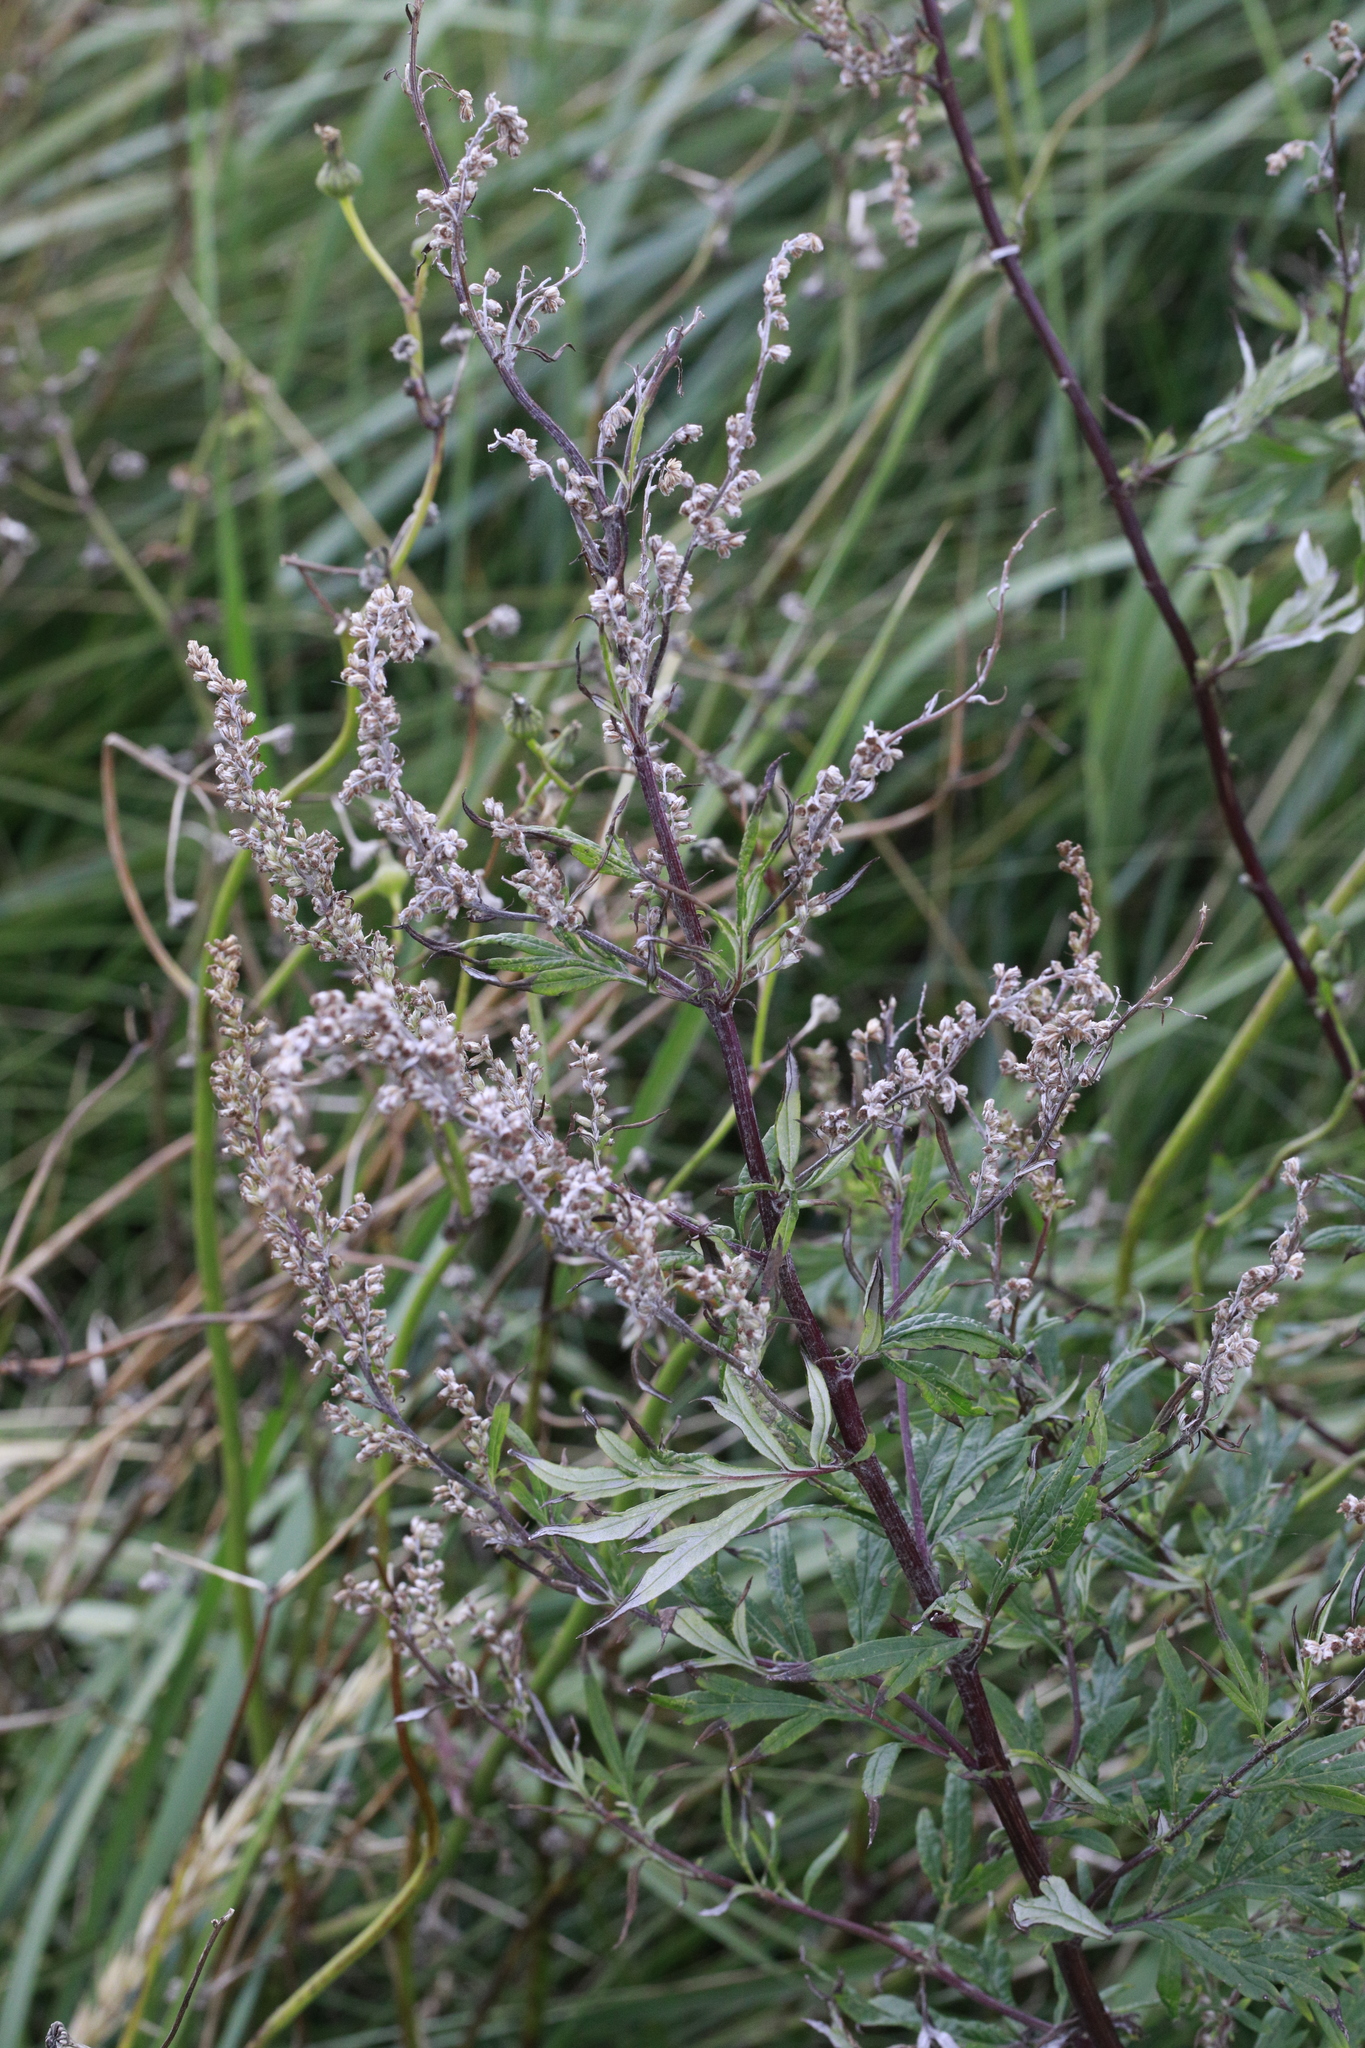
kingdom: Plantae
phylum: Tracheophyta
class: Magnoliopsida
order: Asterales
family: Asteraceae
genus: Artemisia
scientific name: Artemisia vulgaris
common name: Mugwort
